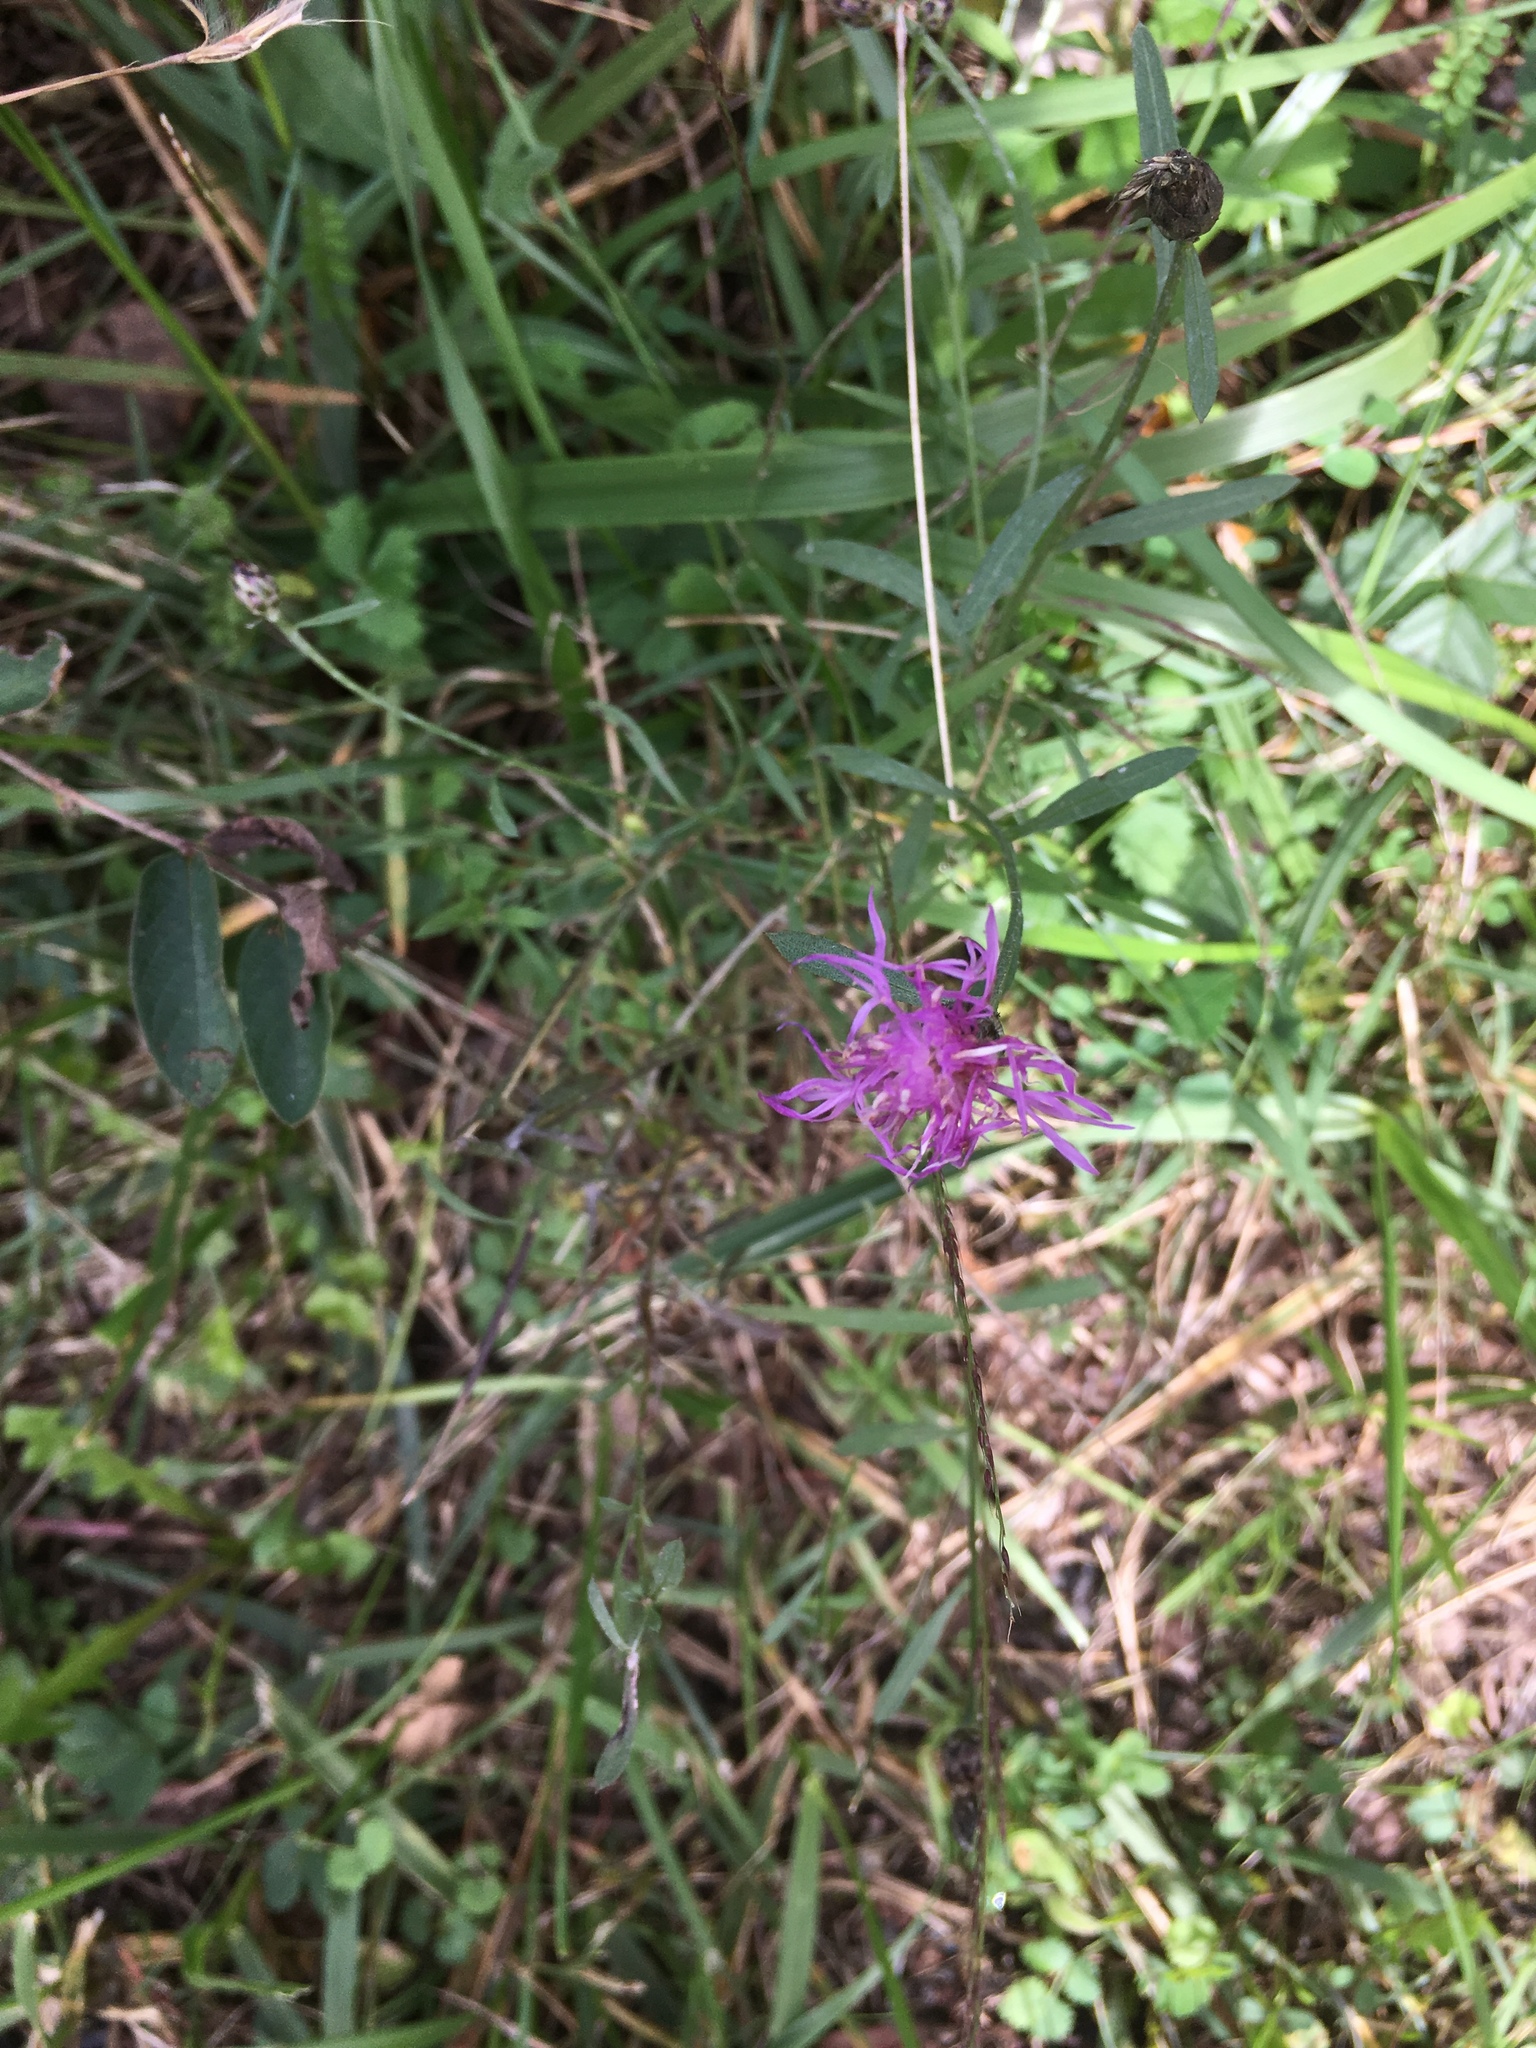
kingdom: Plantae
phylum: Tracheophyta
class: Magnoliopsida
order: Asterales
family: Asteraceae
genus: Centaurea
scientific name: Centaurea stoebe
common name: Spotted knapweed
